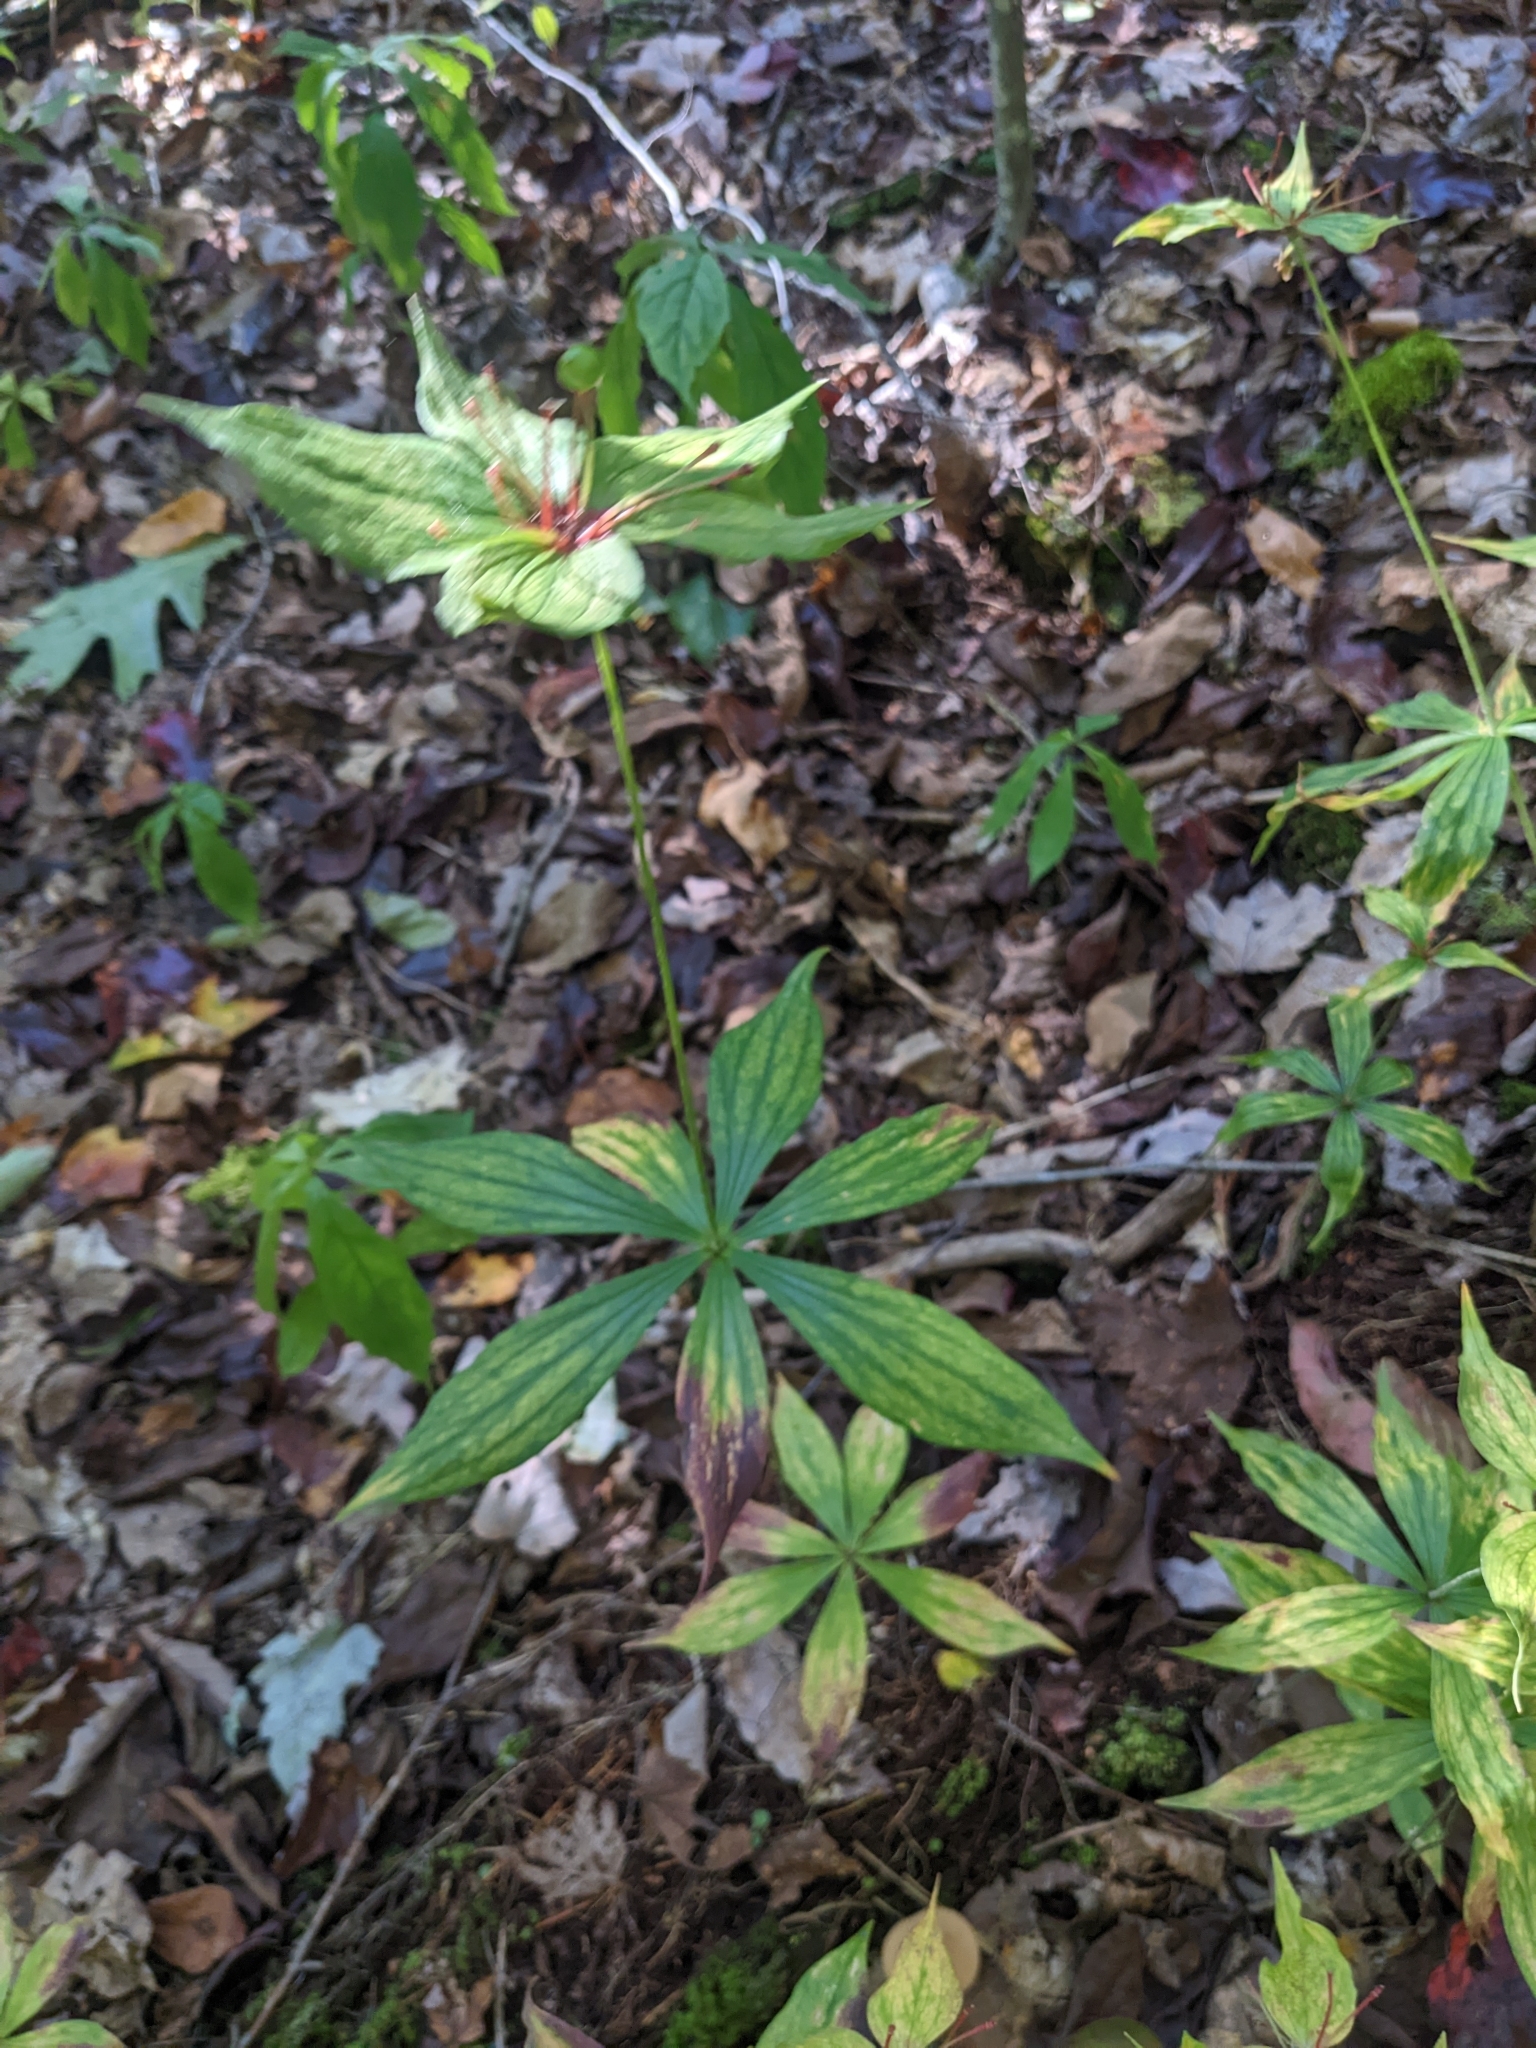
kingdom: Plantae
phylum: Tracheophyta
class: Liliopsida
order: Liliales
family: Liliaceae
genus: Medeola
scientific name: Medeola virginiana
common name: Indian cucumber-root
